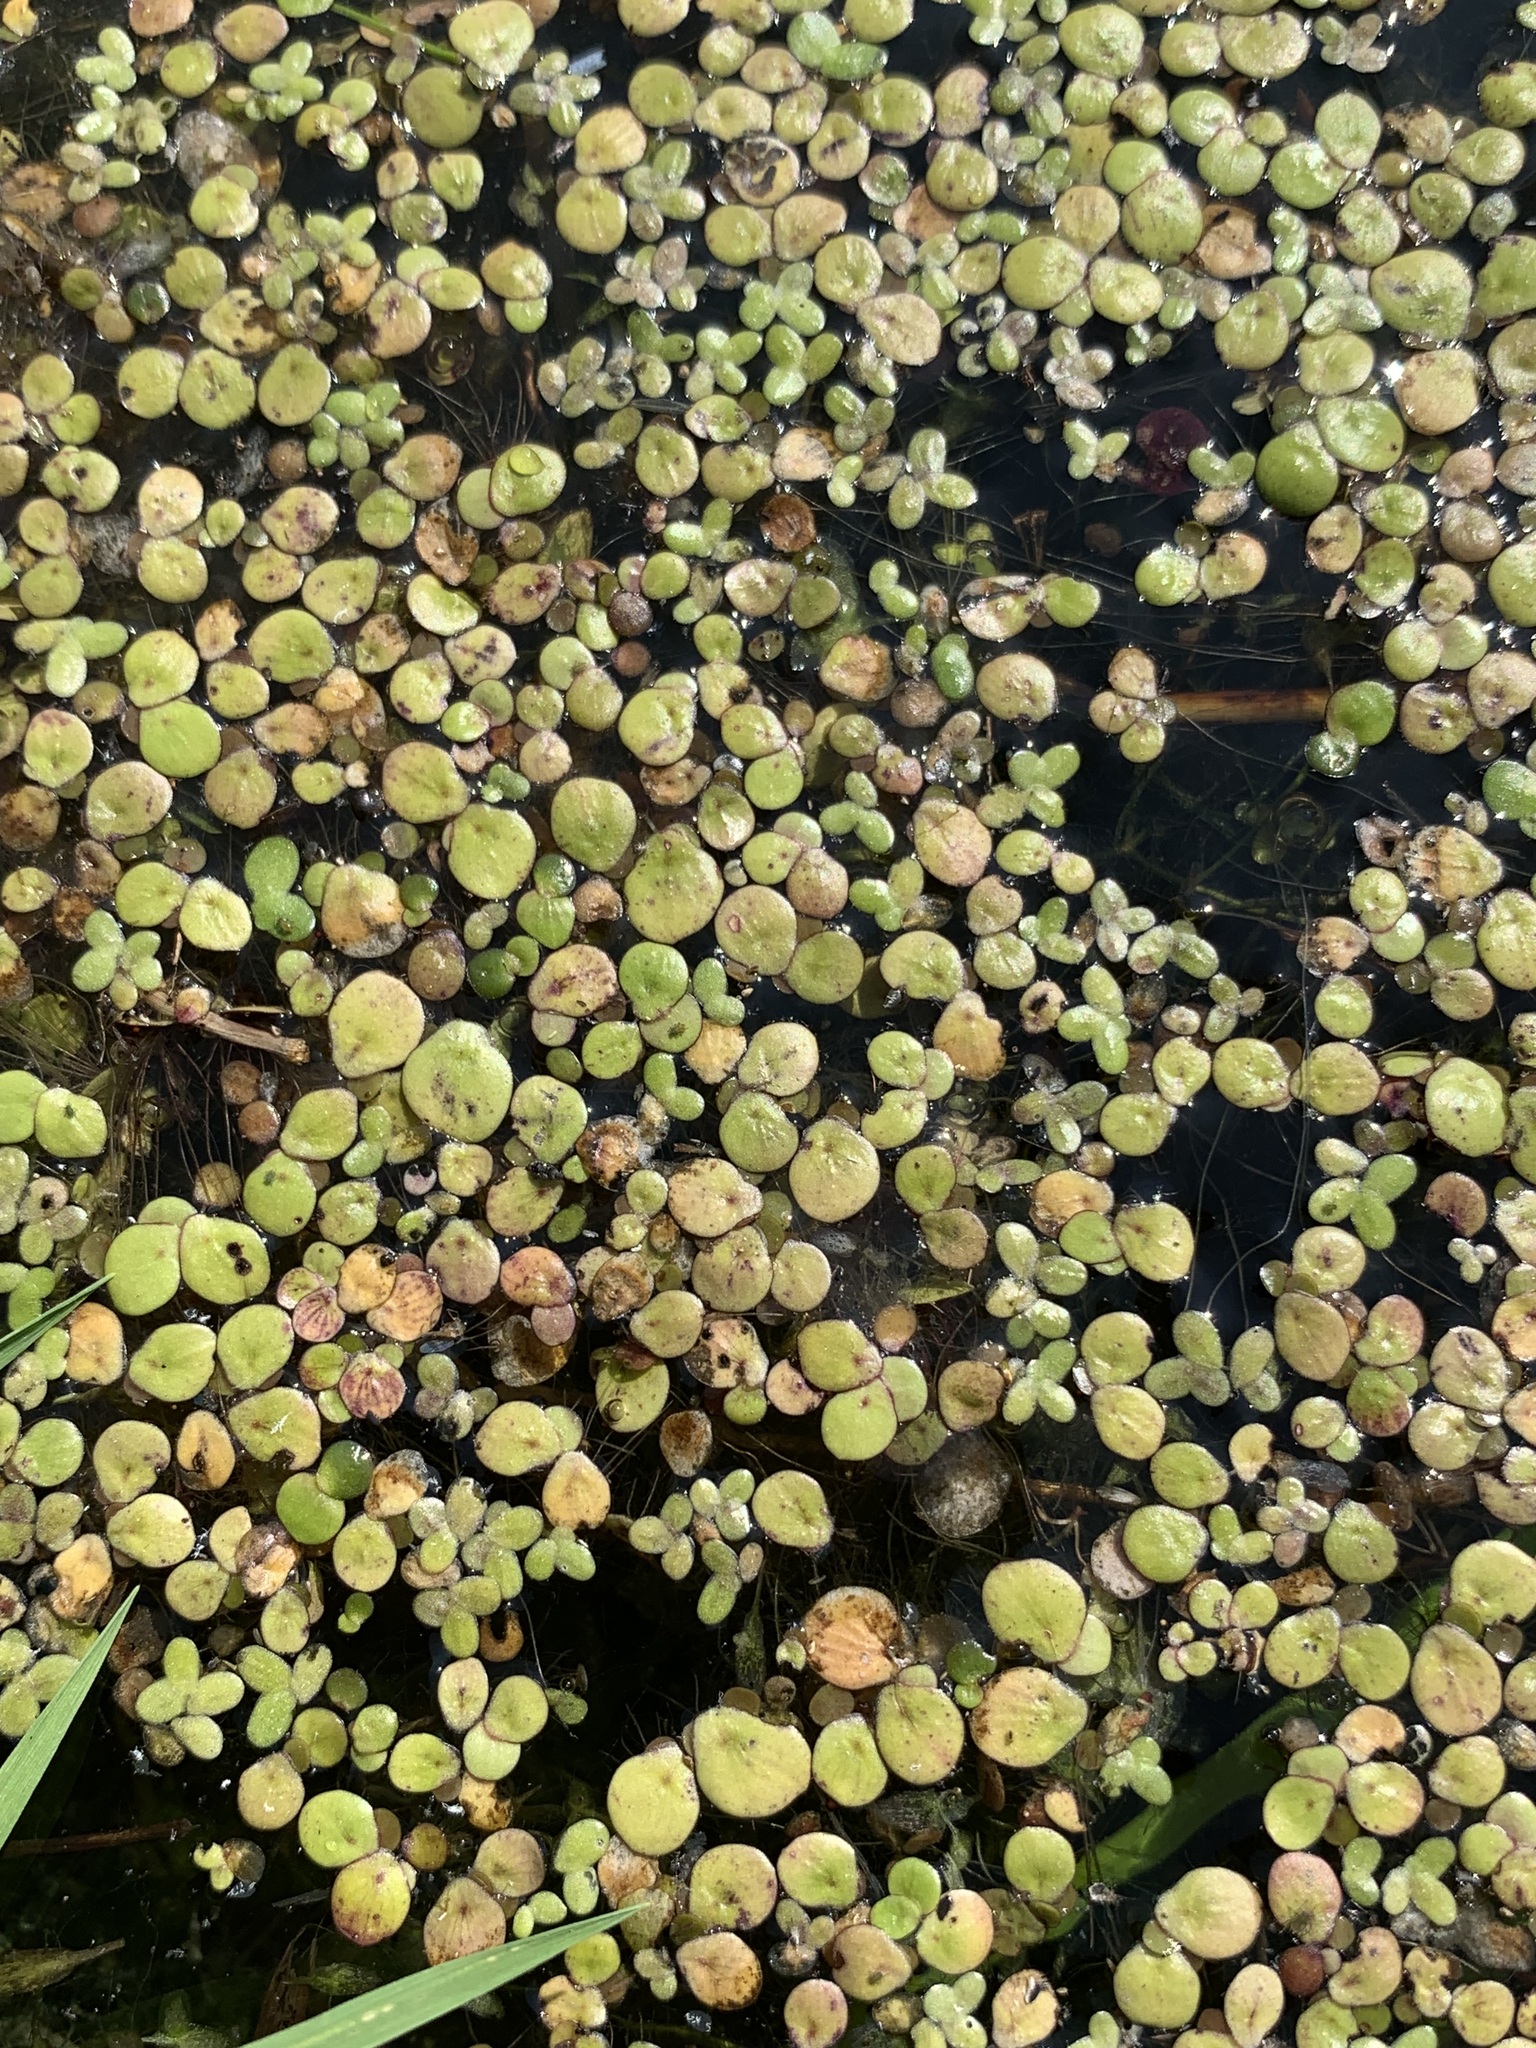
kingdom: Plantae
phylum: Tracheophyta
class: Liliopsida
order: Alismatales
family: Araceae
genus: Spirodela
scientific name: Spirodela polyrhiza
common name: Great duckweed
